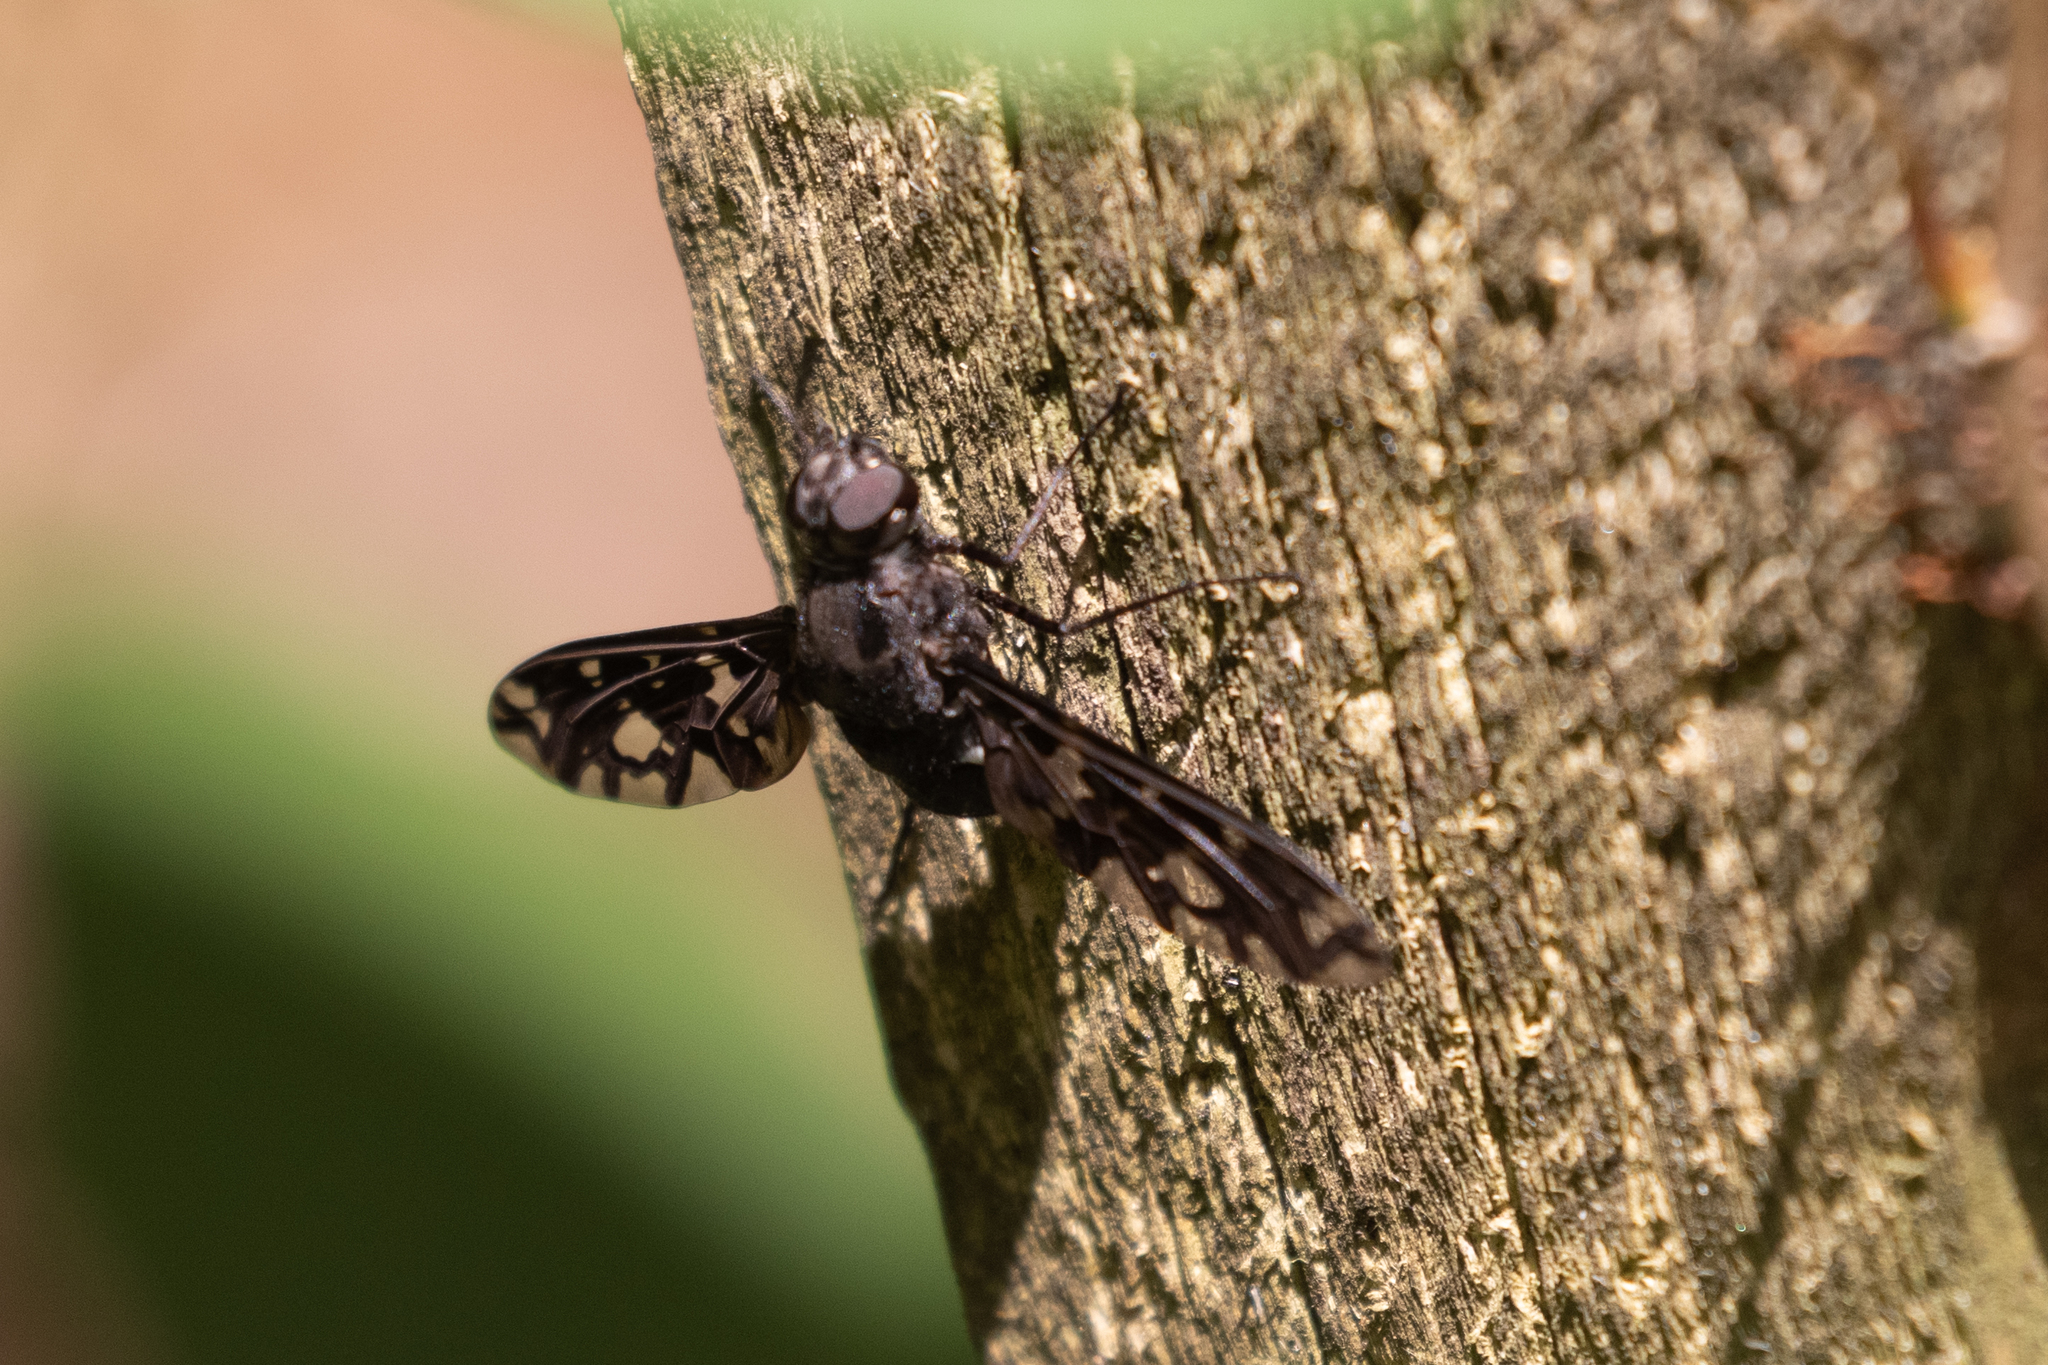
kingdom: Animalia
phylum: Arthropoda
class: Insecta
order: Diptera
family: Bombyliidae
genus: Xenox
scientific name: Xenox tigrinus
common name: Tiger bee fly
